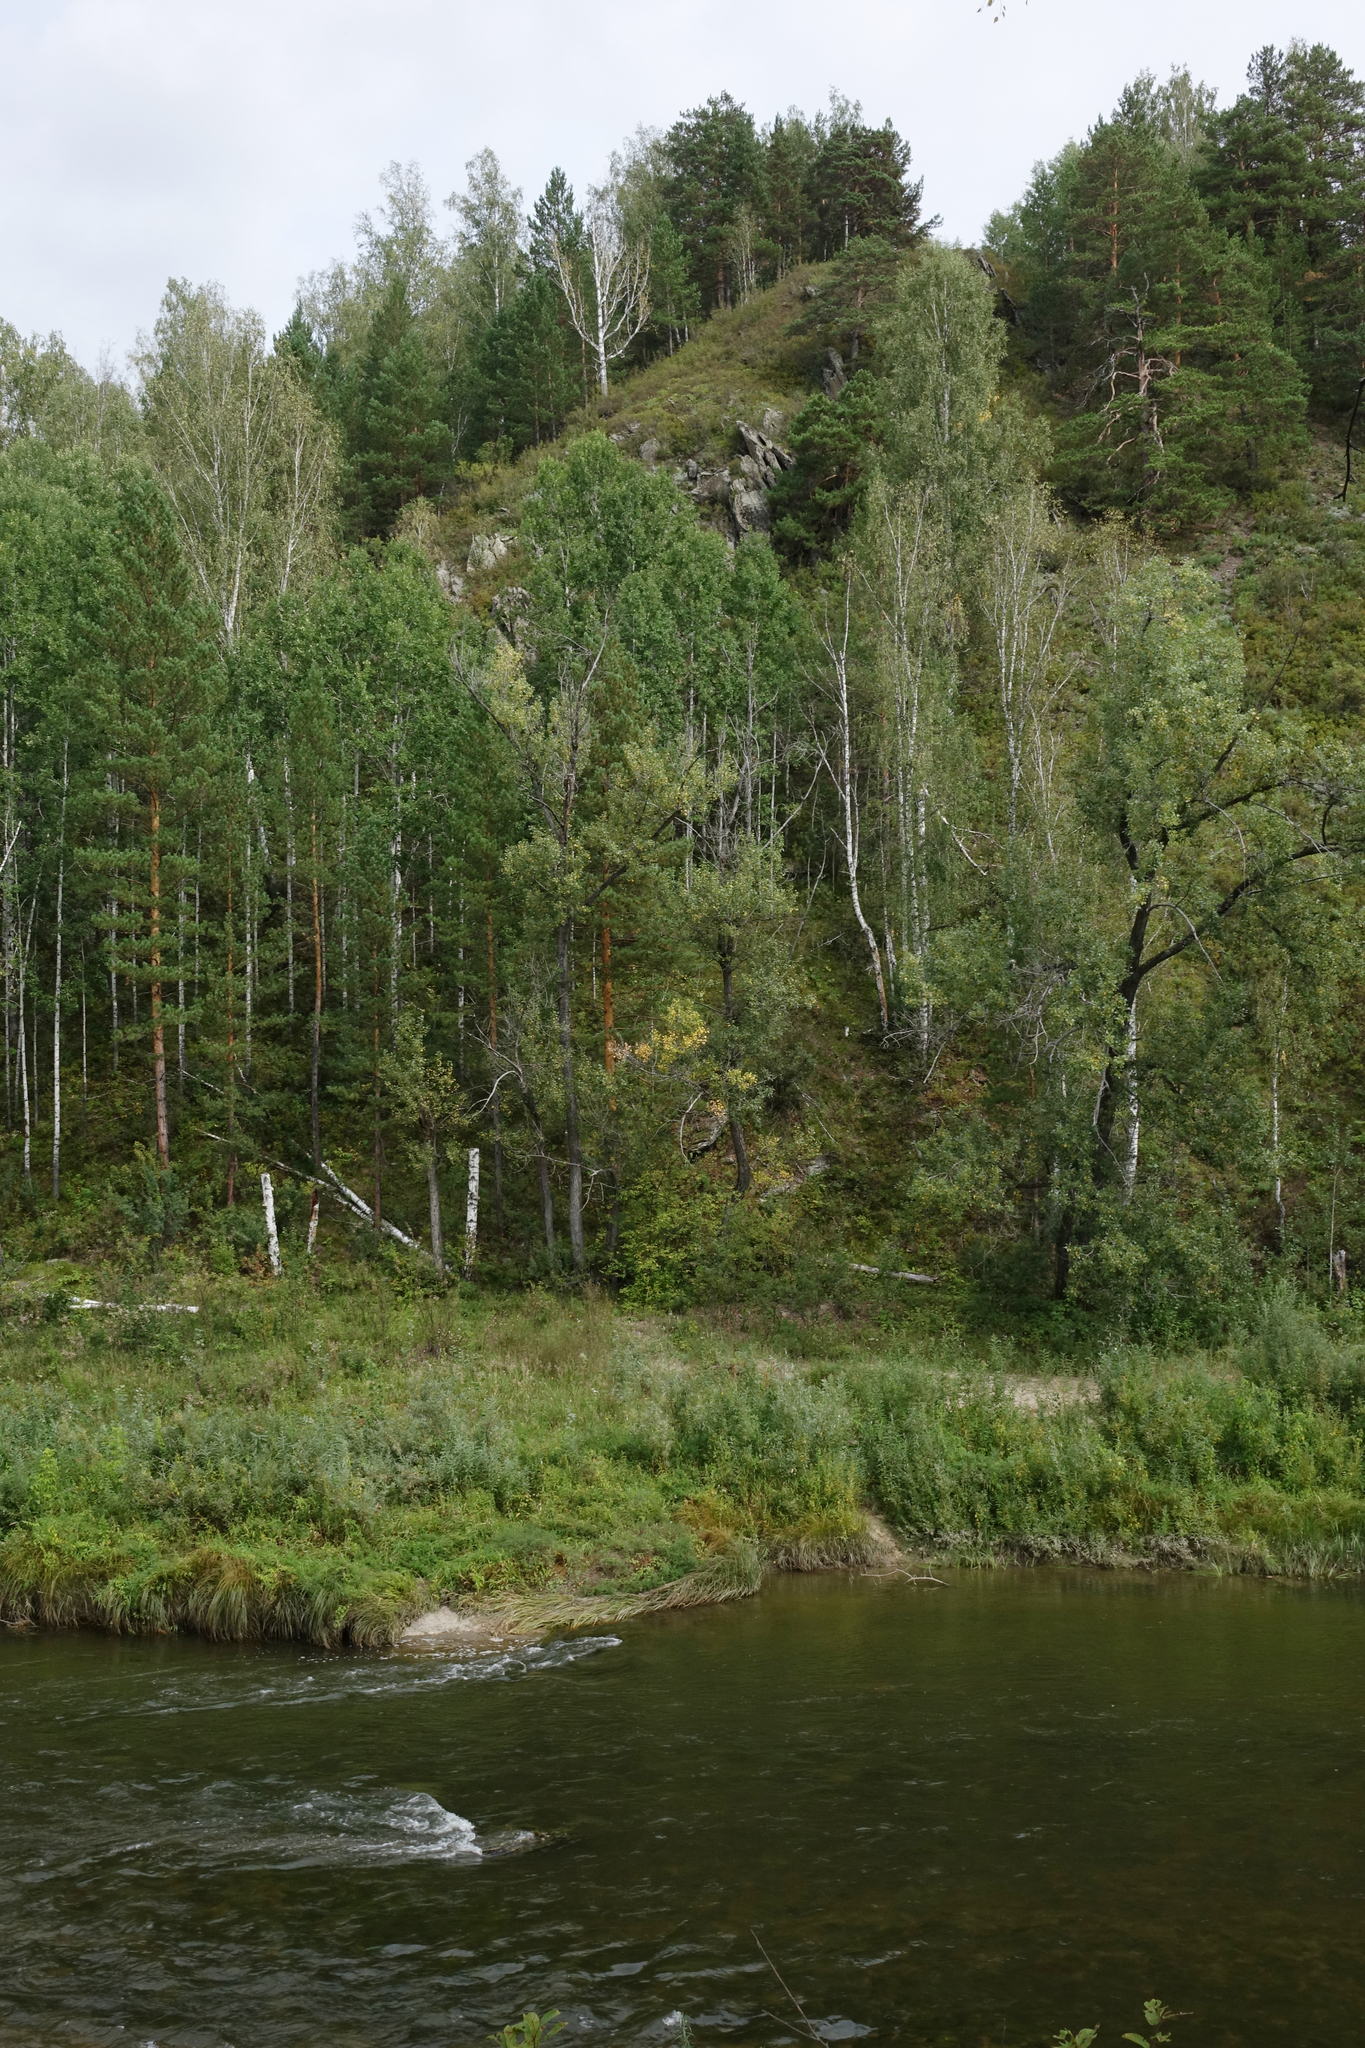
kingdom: Plantae
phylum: Tracheophyta
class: Pinopsida
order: Pinales
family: Pinaceae
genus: Pinus
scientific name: Pinus sylvestris
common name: Scots pine
